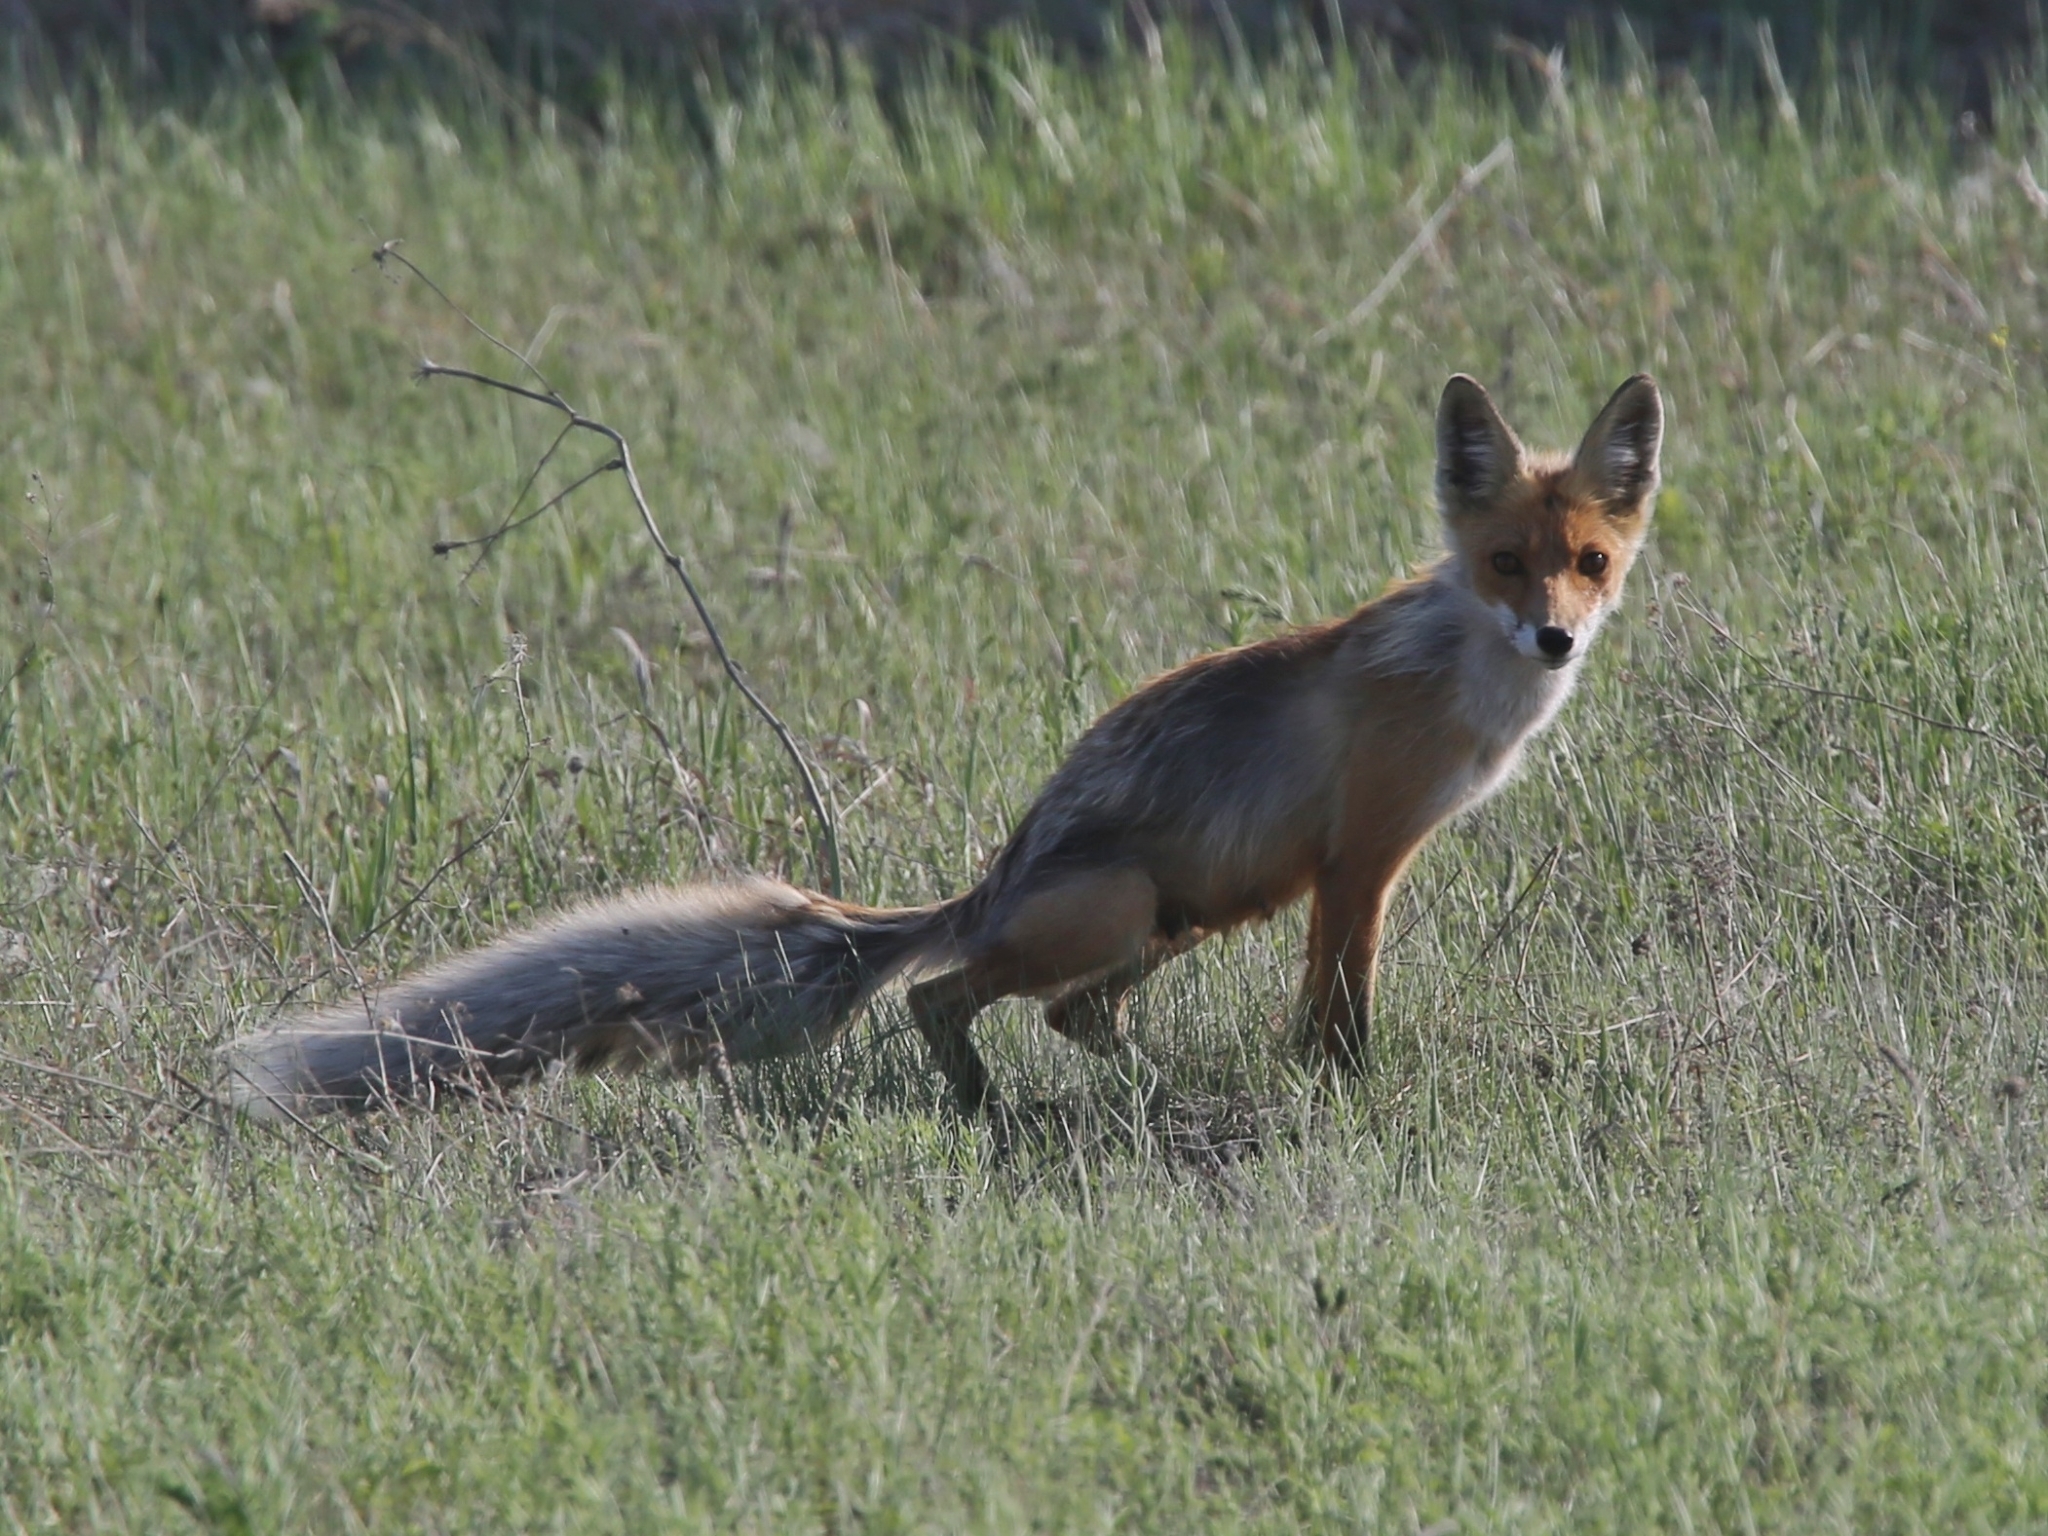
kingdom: Animalia
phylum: Chordata
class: Mammalia
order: Carnivora
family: Canidae
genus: Vulpes
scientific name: Vulpes vulpes
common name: Red fox
